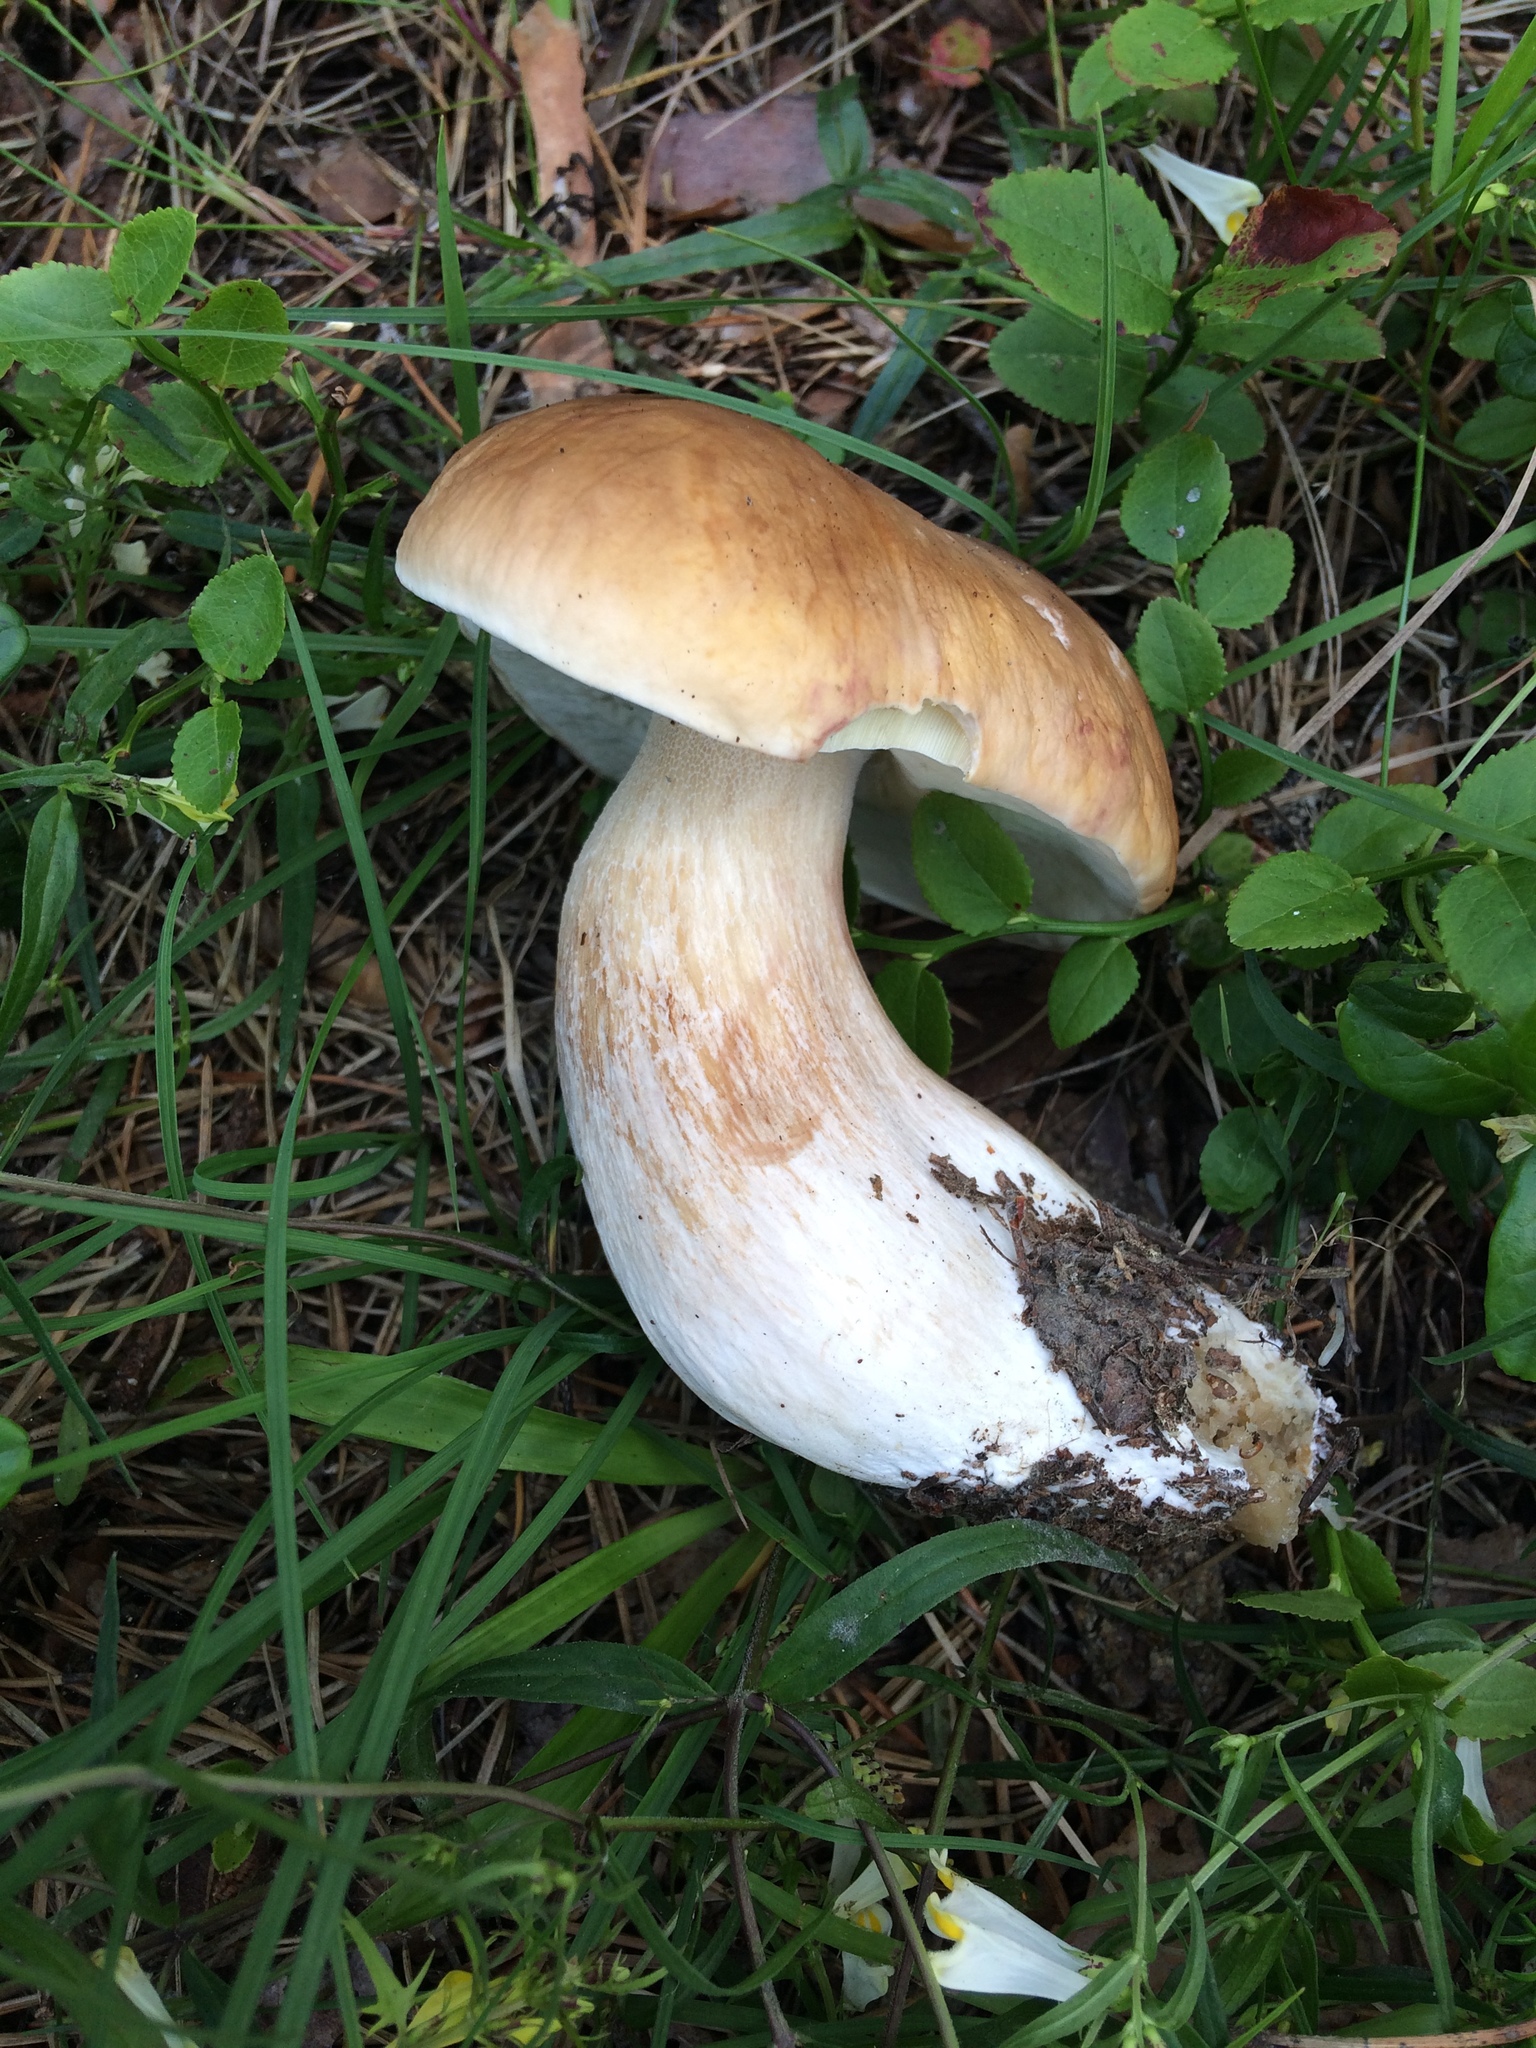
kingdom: Fungi
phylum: Basidiomycota
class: Agaricomycetes
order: Boletales
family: Boletaceae
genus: Boletus
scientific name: Boletus edulis
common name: Cep
